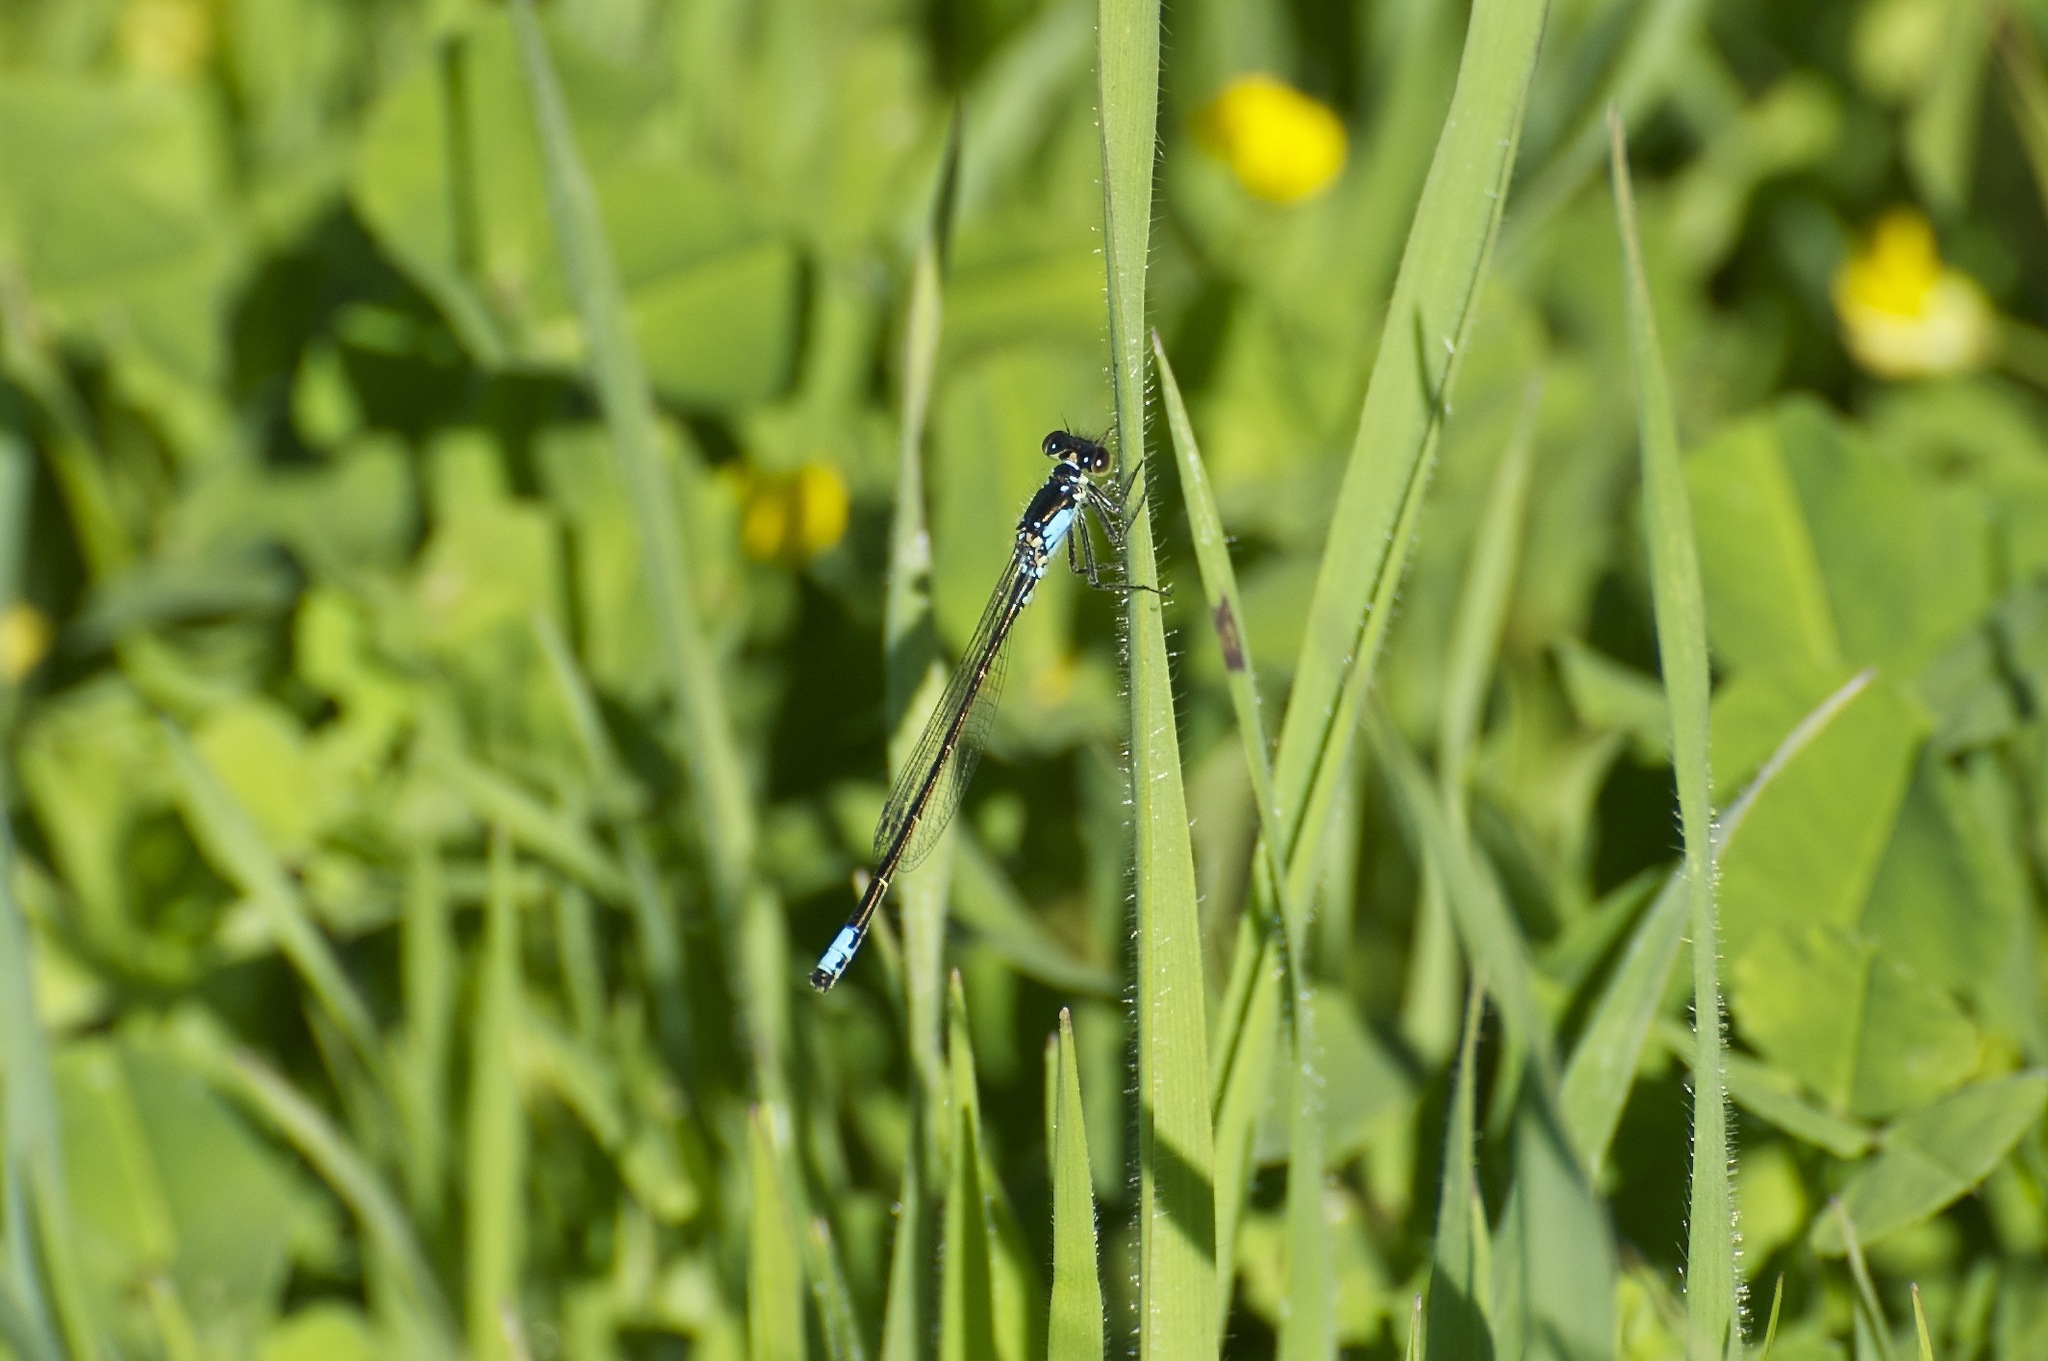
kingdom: Animalia
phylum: Arthropoda
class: Insecta
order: Odonata
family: Coenagrionidae
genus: Ischnura
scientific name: Ischnura cervula
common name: Pacific forktail
